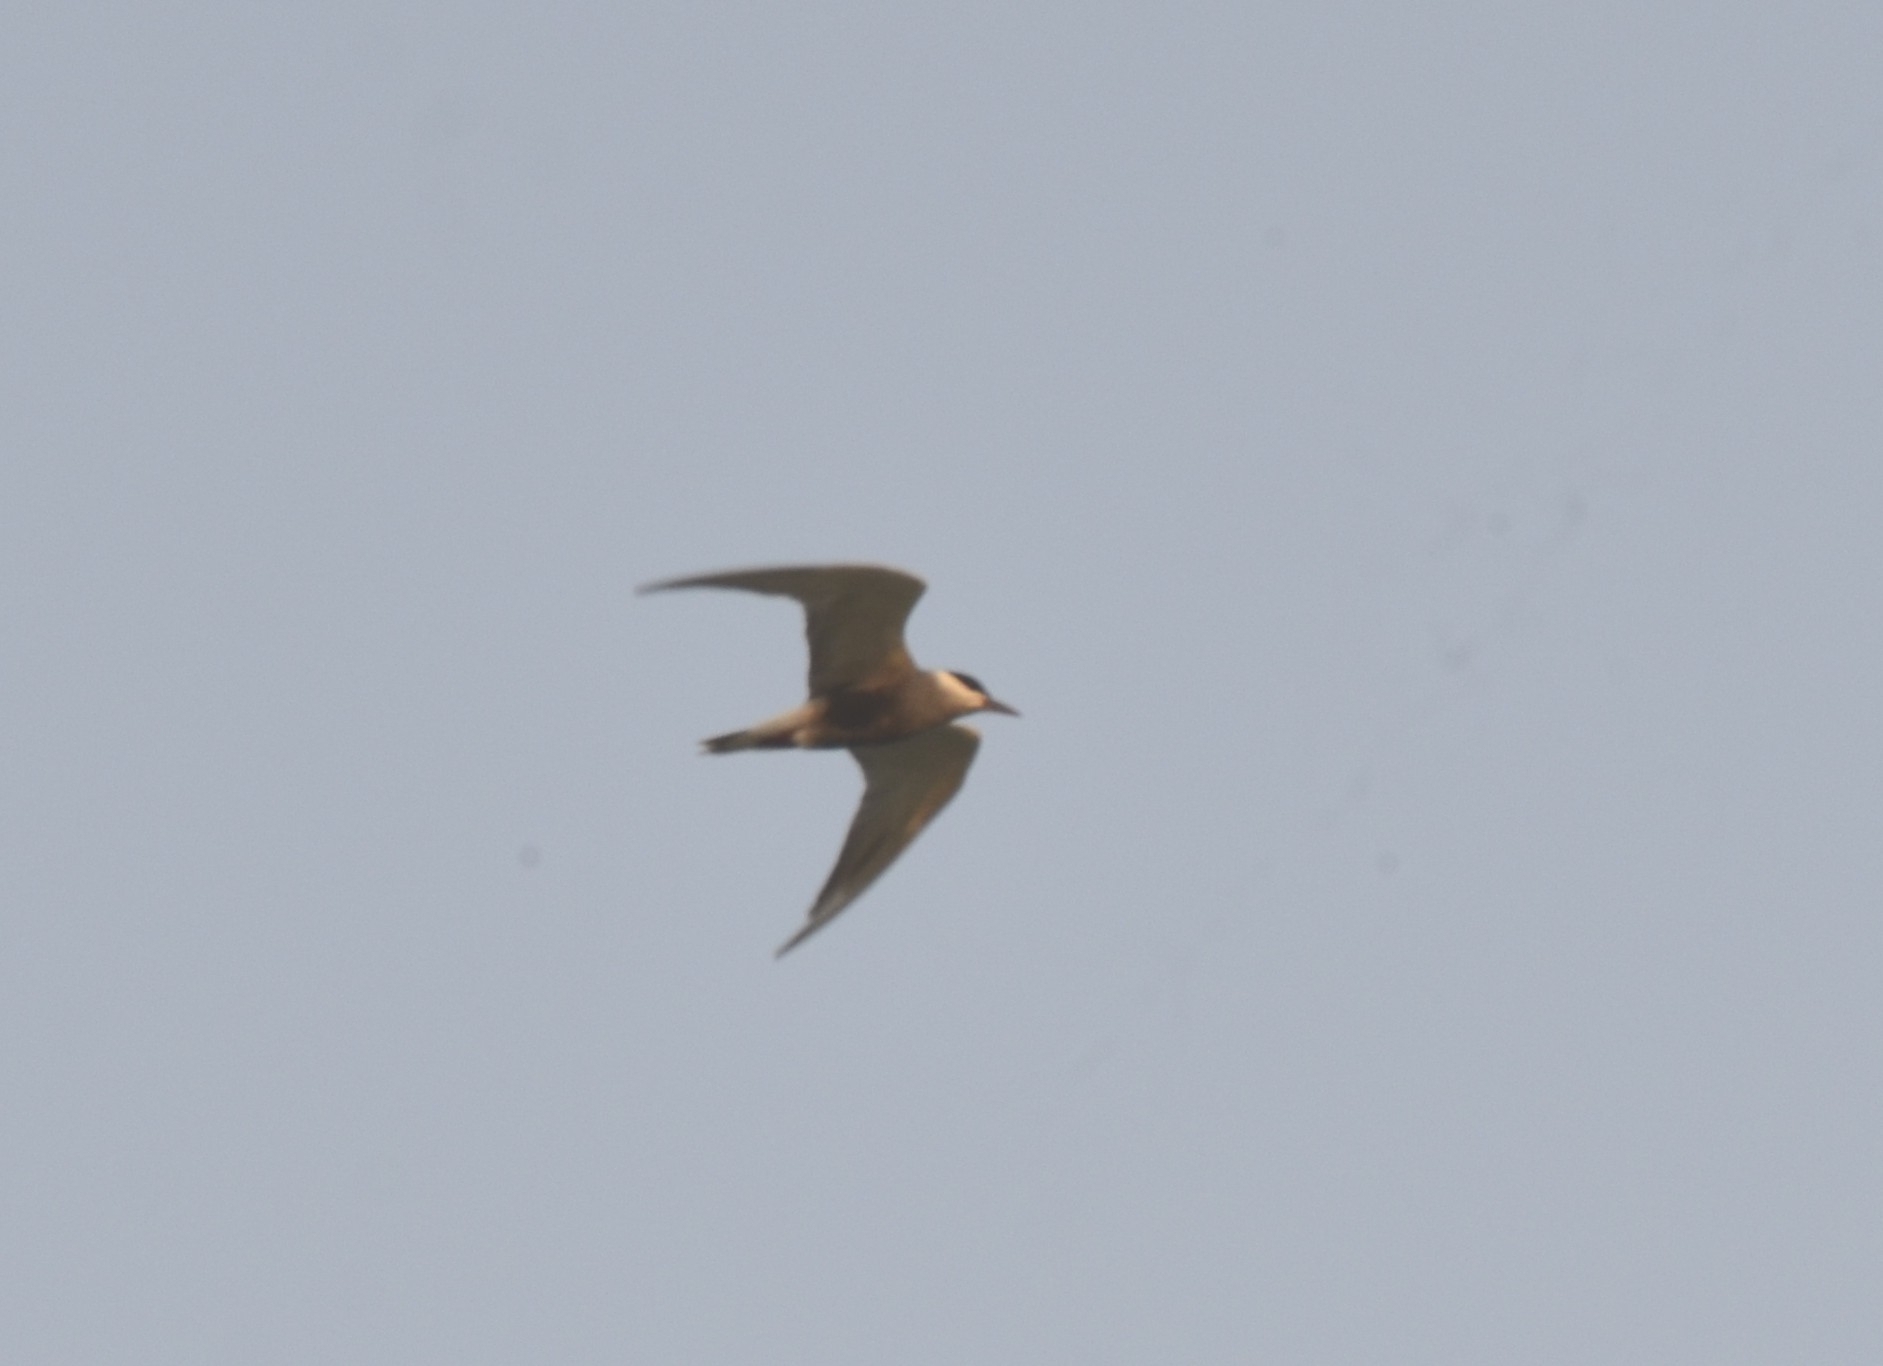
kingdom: Animalia
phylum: Chordata
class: Aves
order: Charadriiformes
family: Laridae
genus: Chlidonias
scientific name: Chlidonias hybrida
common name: Whiskered tern
